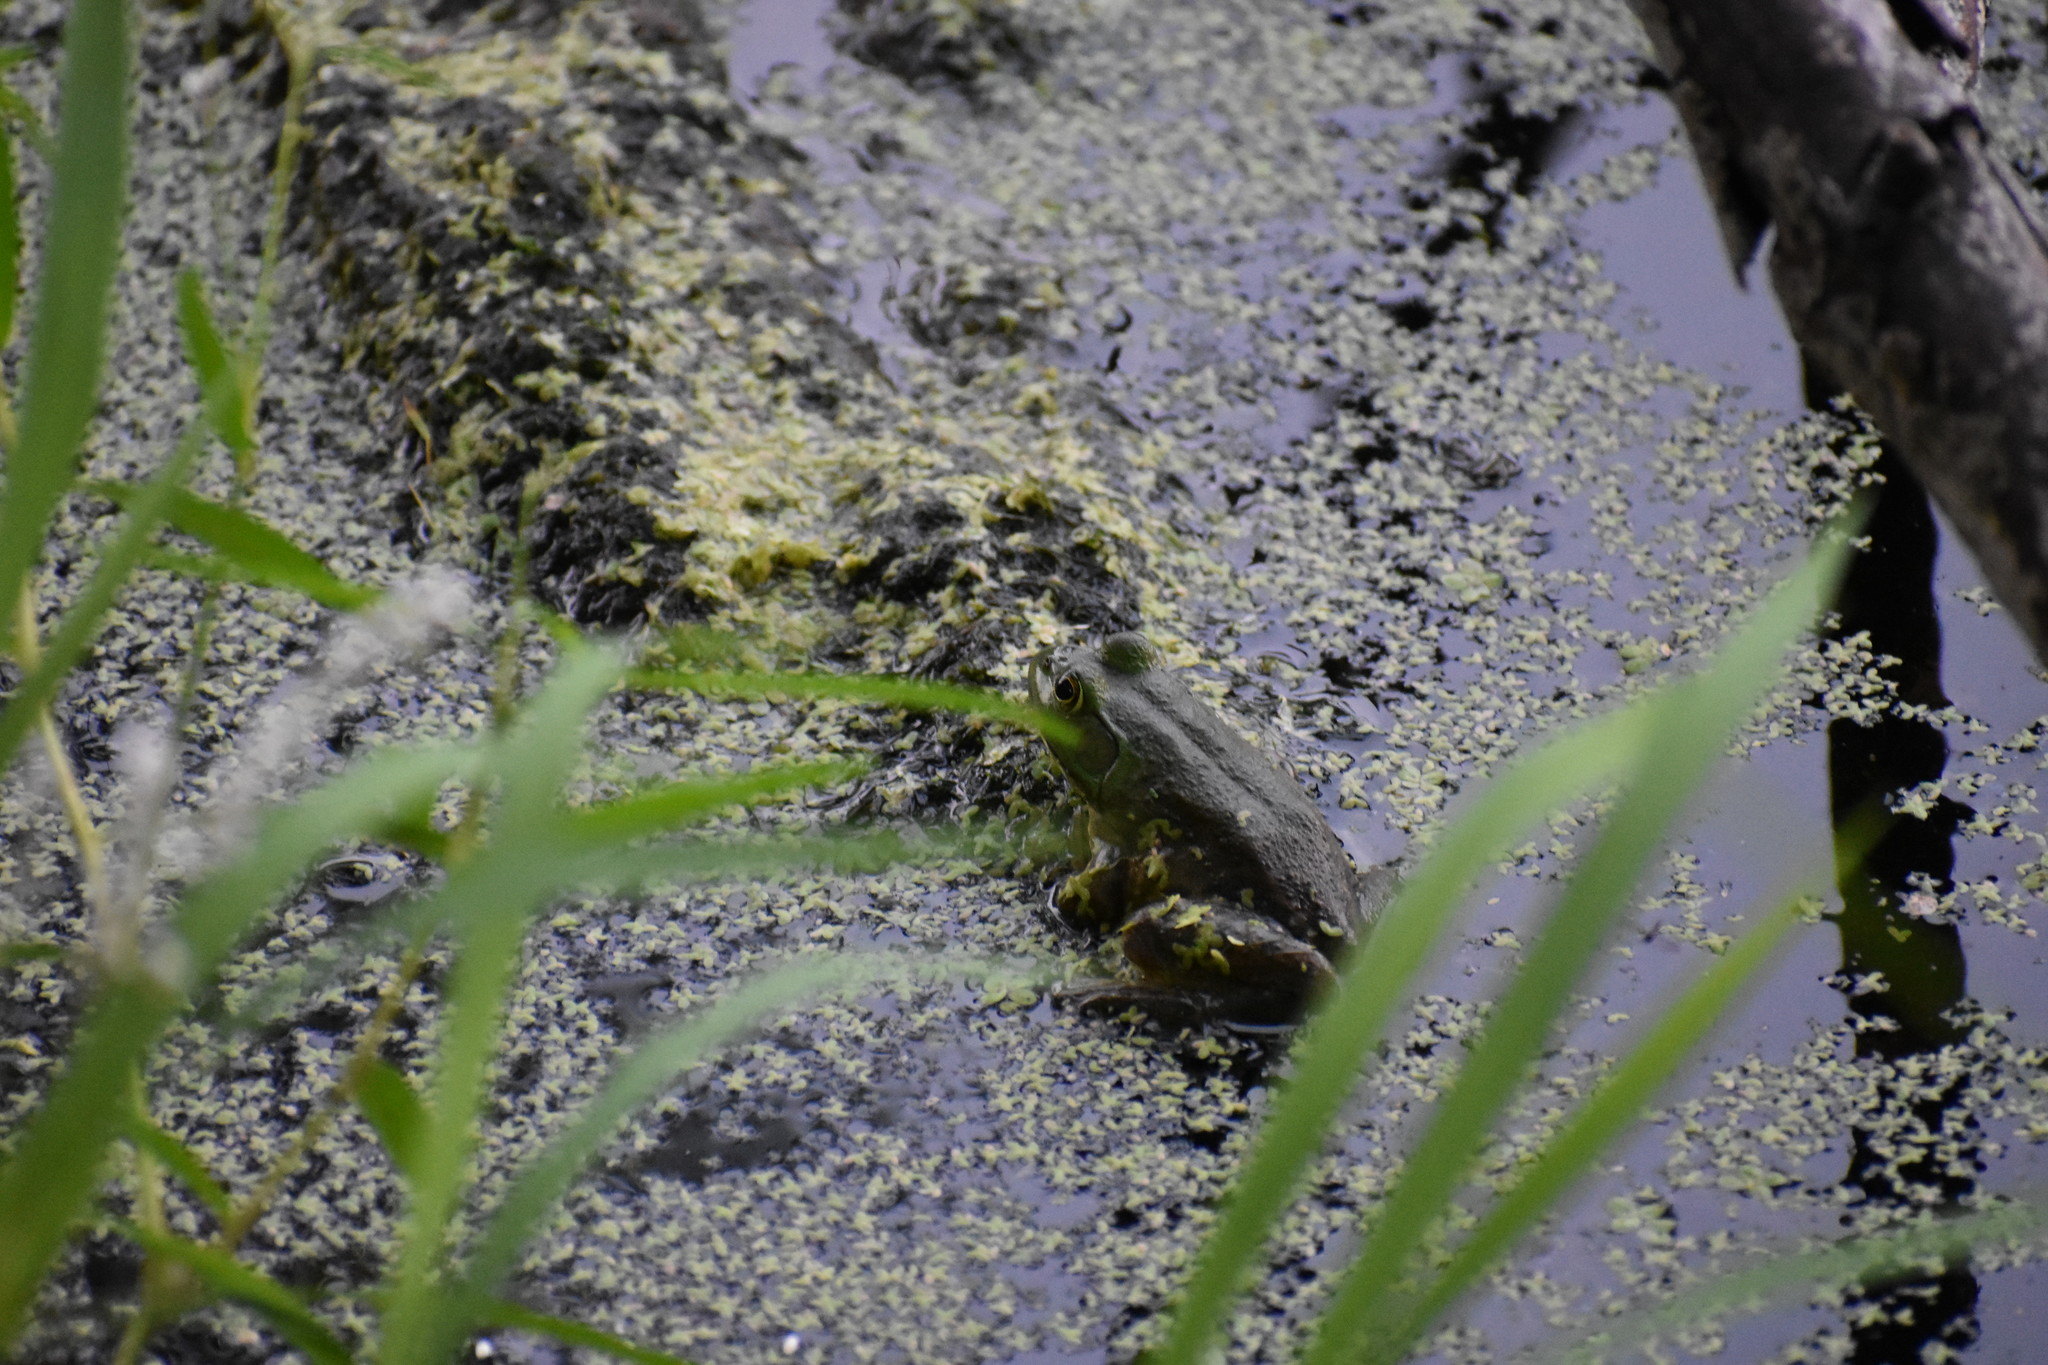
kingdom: Animalia
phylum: Chordata
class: Amphibia
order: Anura
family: Ranidae
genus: Lithobates
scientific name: Lithobates catesbeianus
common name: American bullfrog
